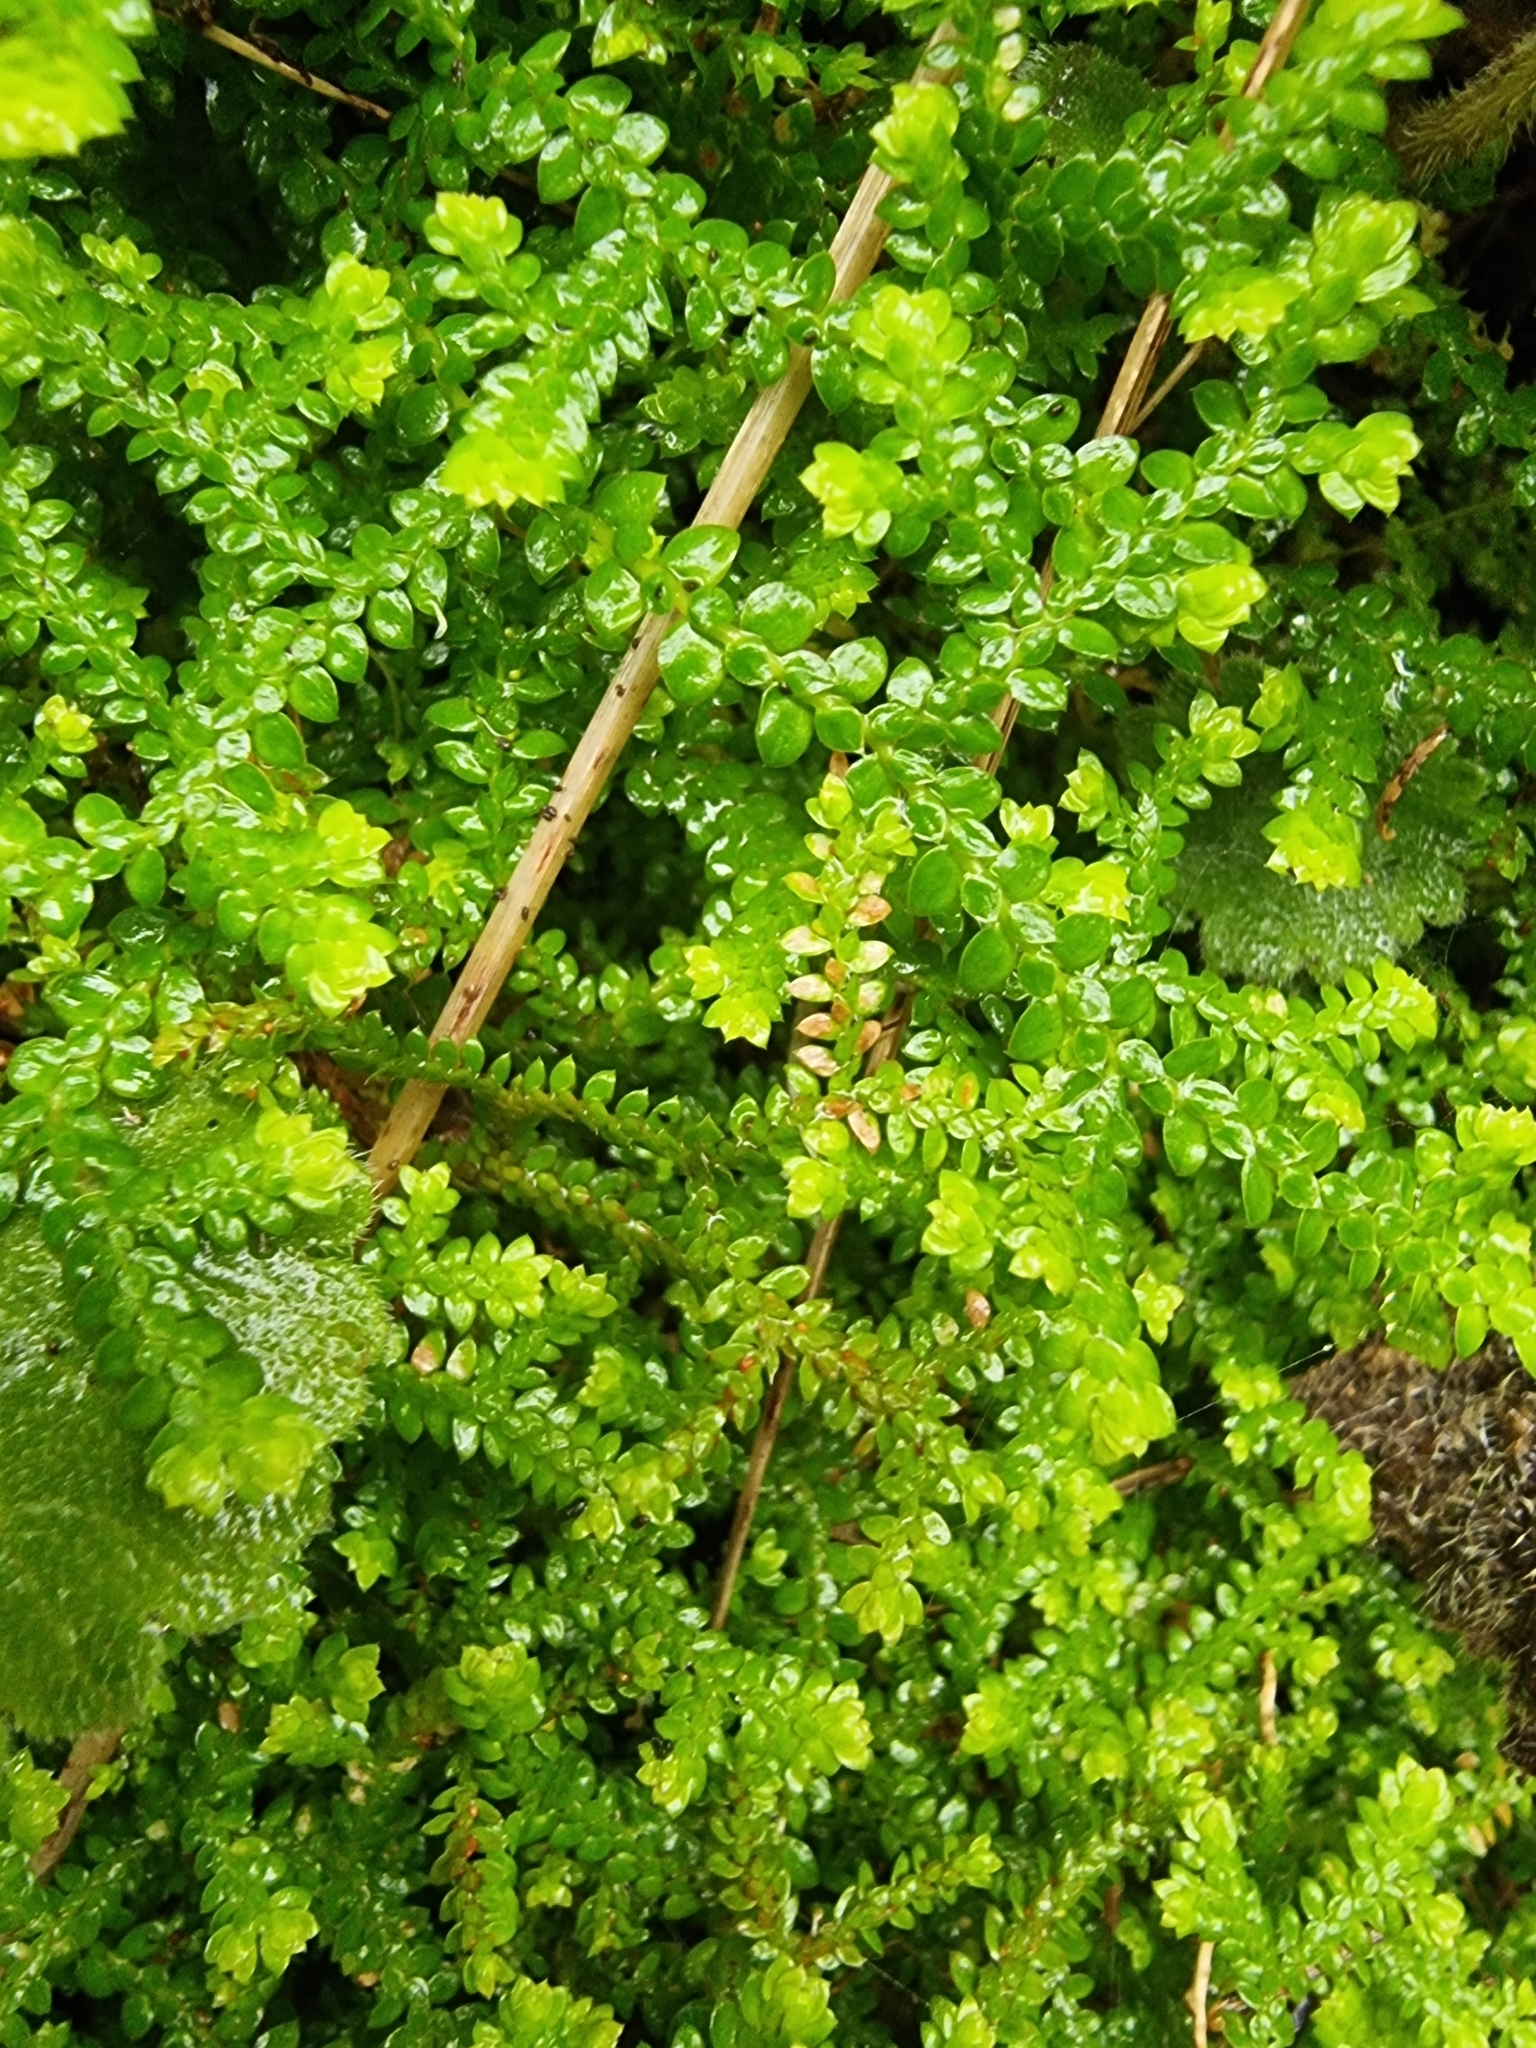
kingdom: Plantae
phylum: Tracheophyta
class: Lycopodiopsida
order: Selaginellales
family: Selaginellaceae
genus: Selaginella
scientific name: Selaginella denticulata
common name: Toothed-leaved clubmoss
